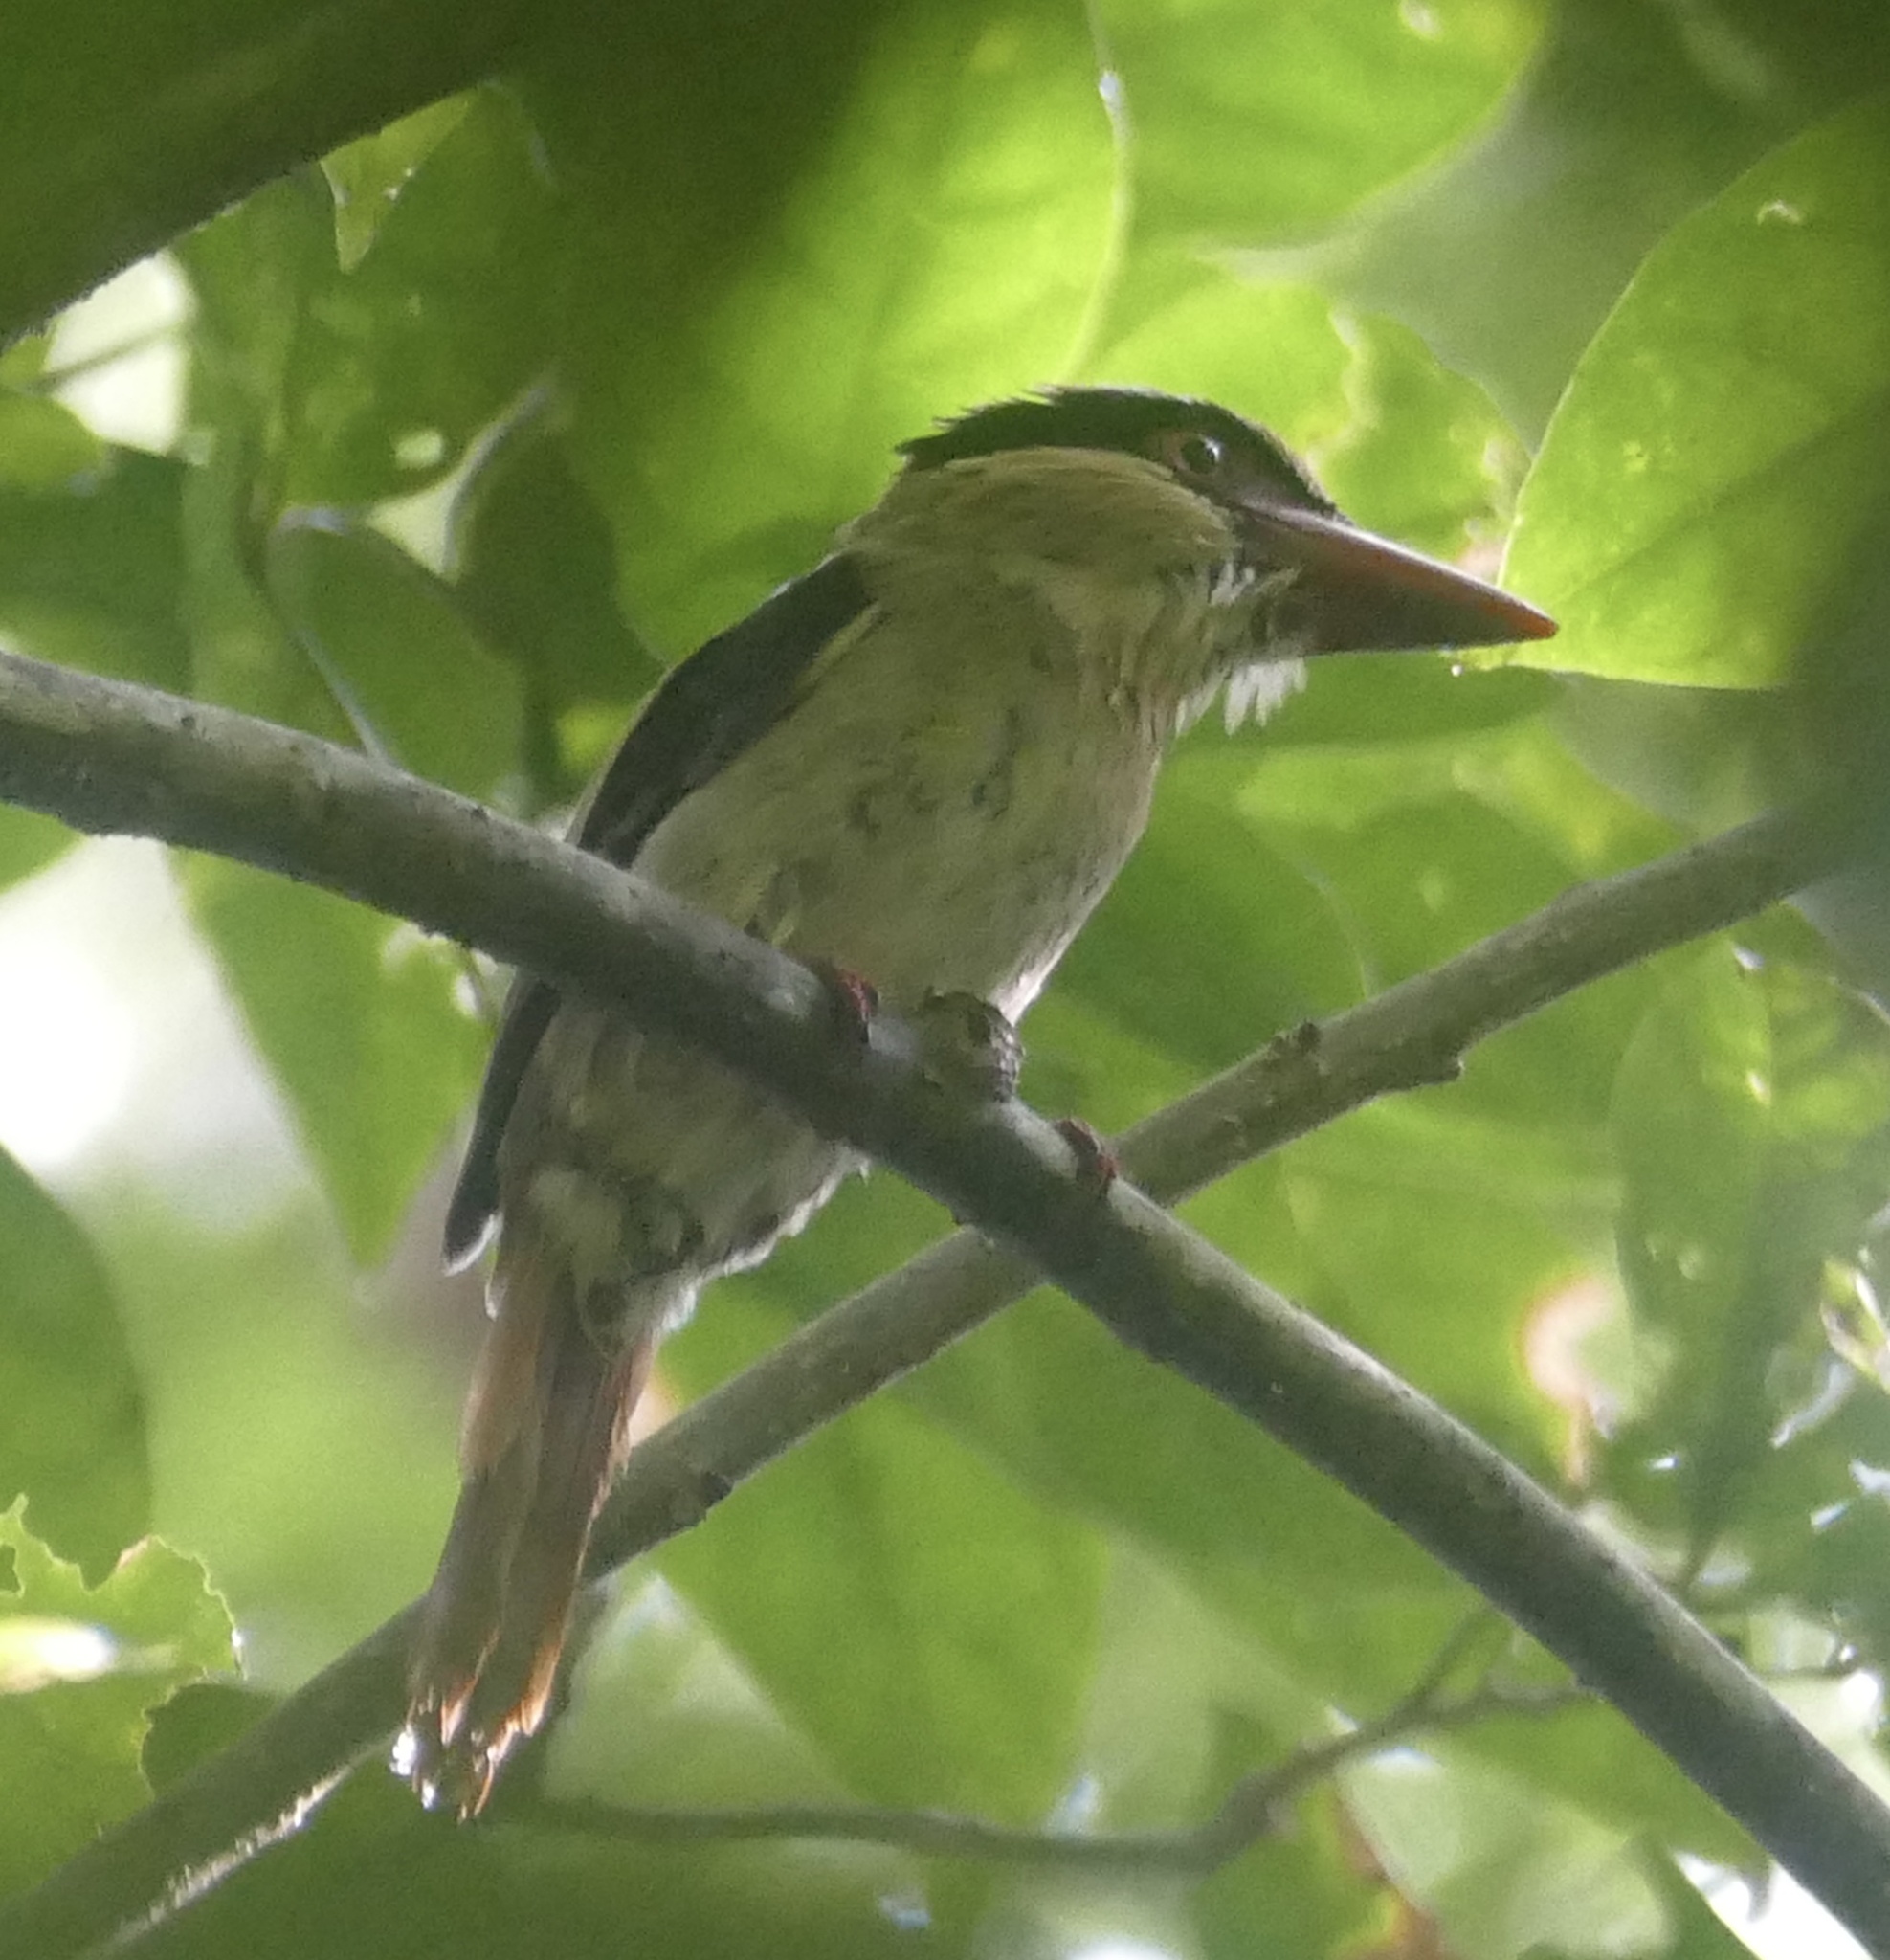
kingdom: Animalia
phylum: Chordata
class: Aves
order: Coraciiformes
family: Alcedinidae
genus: Cittura
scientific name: Cittura cyanotis
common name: Lilac kingfisher
